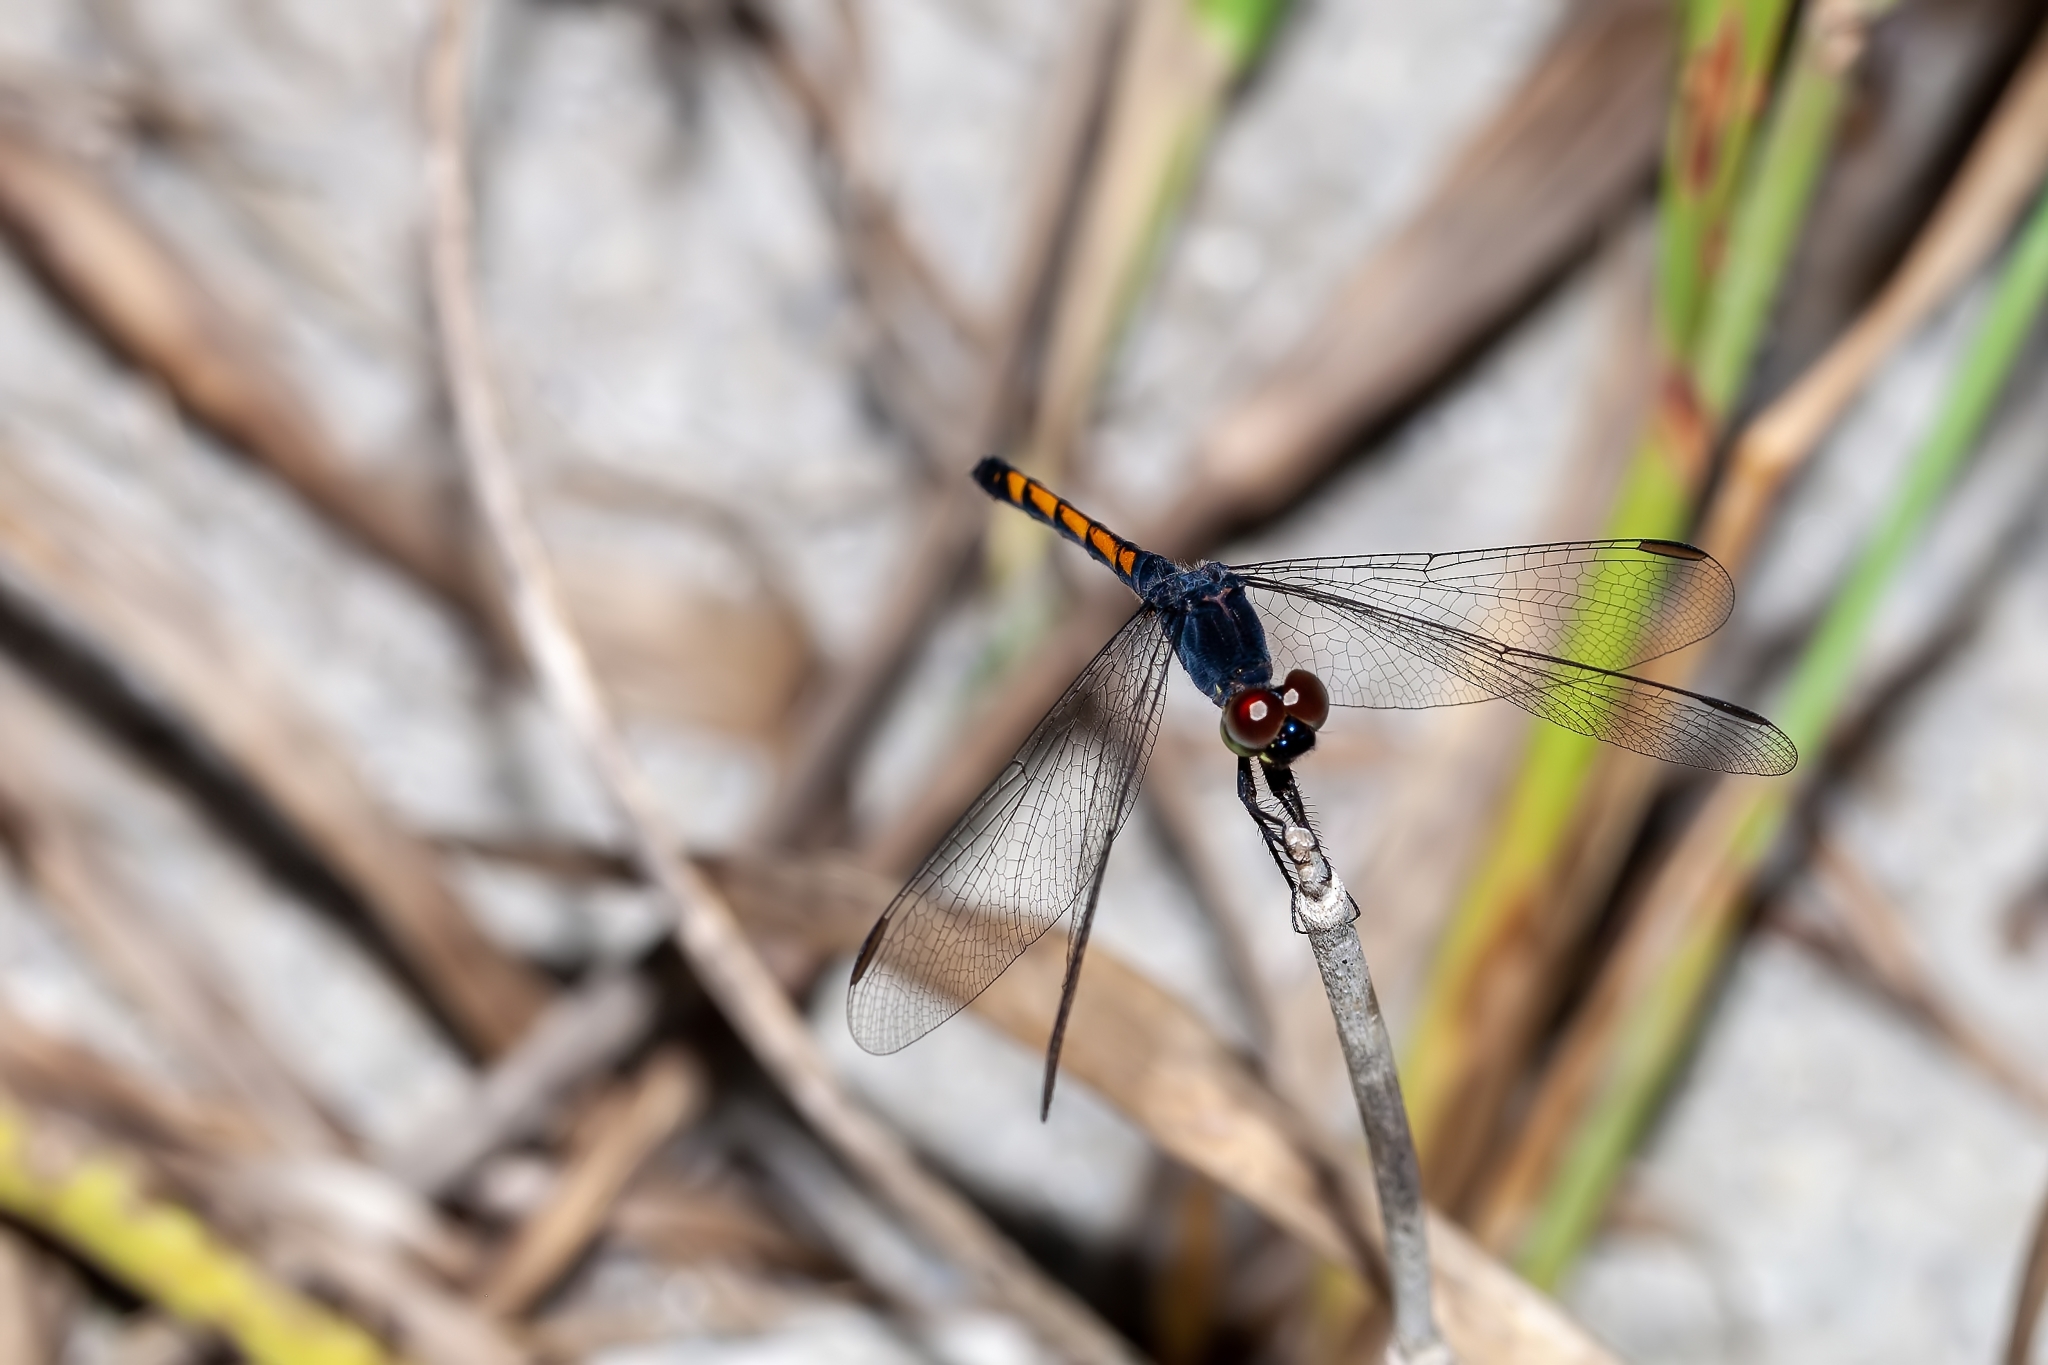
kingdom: Animalia
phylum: Arthropoda
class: Insecta
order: Odonata
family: Libellulidae
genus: Erythrodiplax
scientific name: Erythrodiplax berenice
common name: Seaside dragonlet
